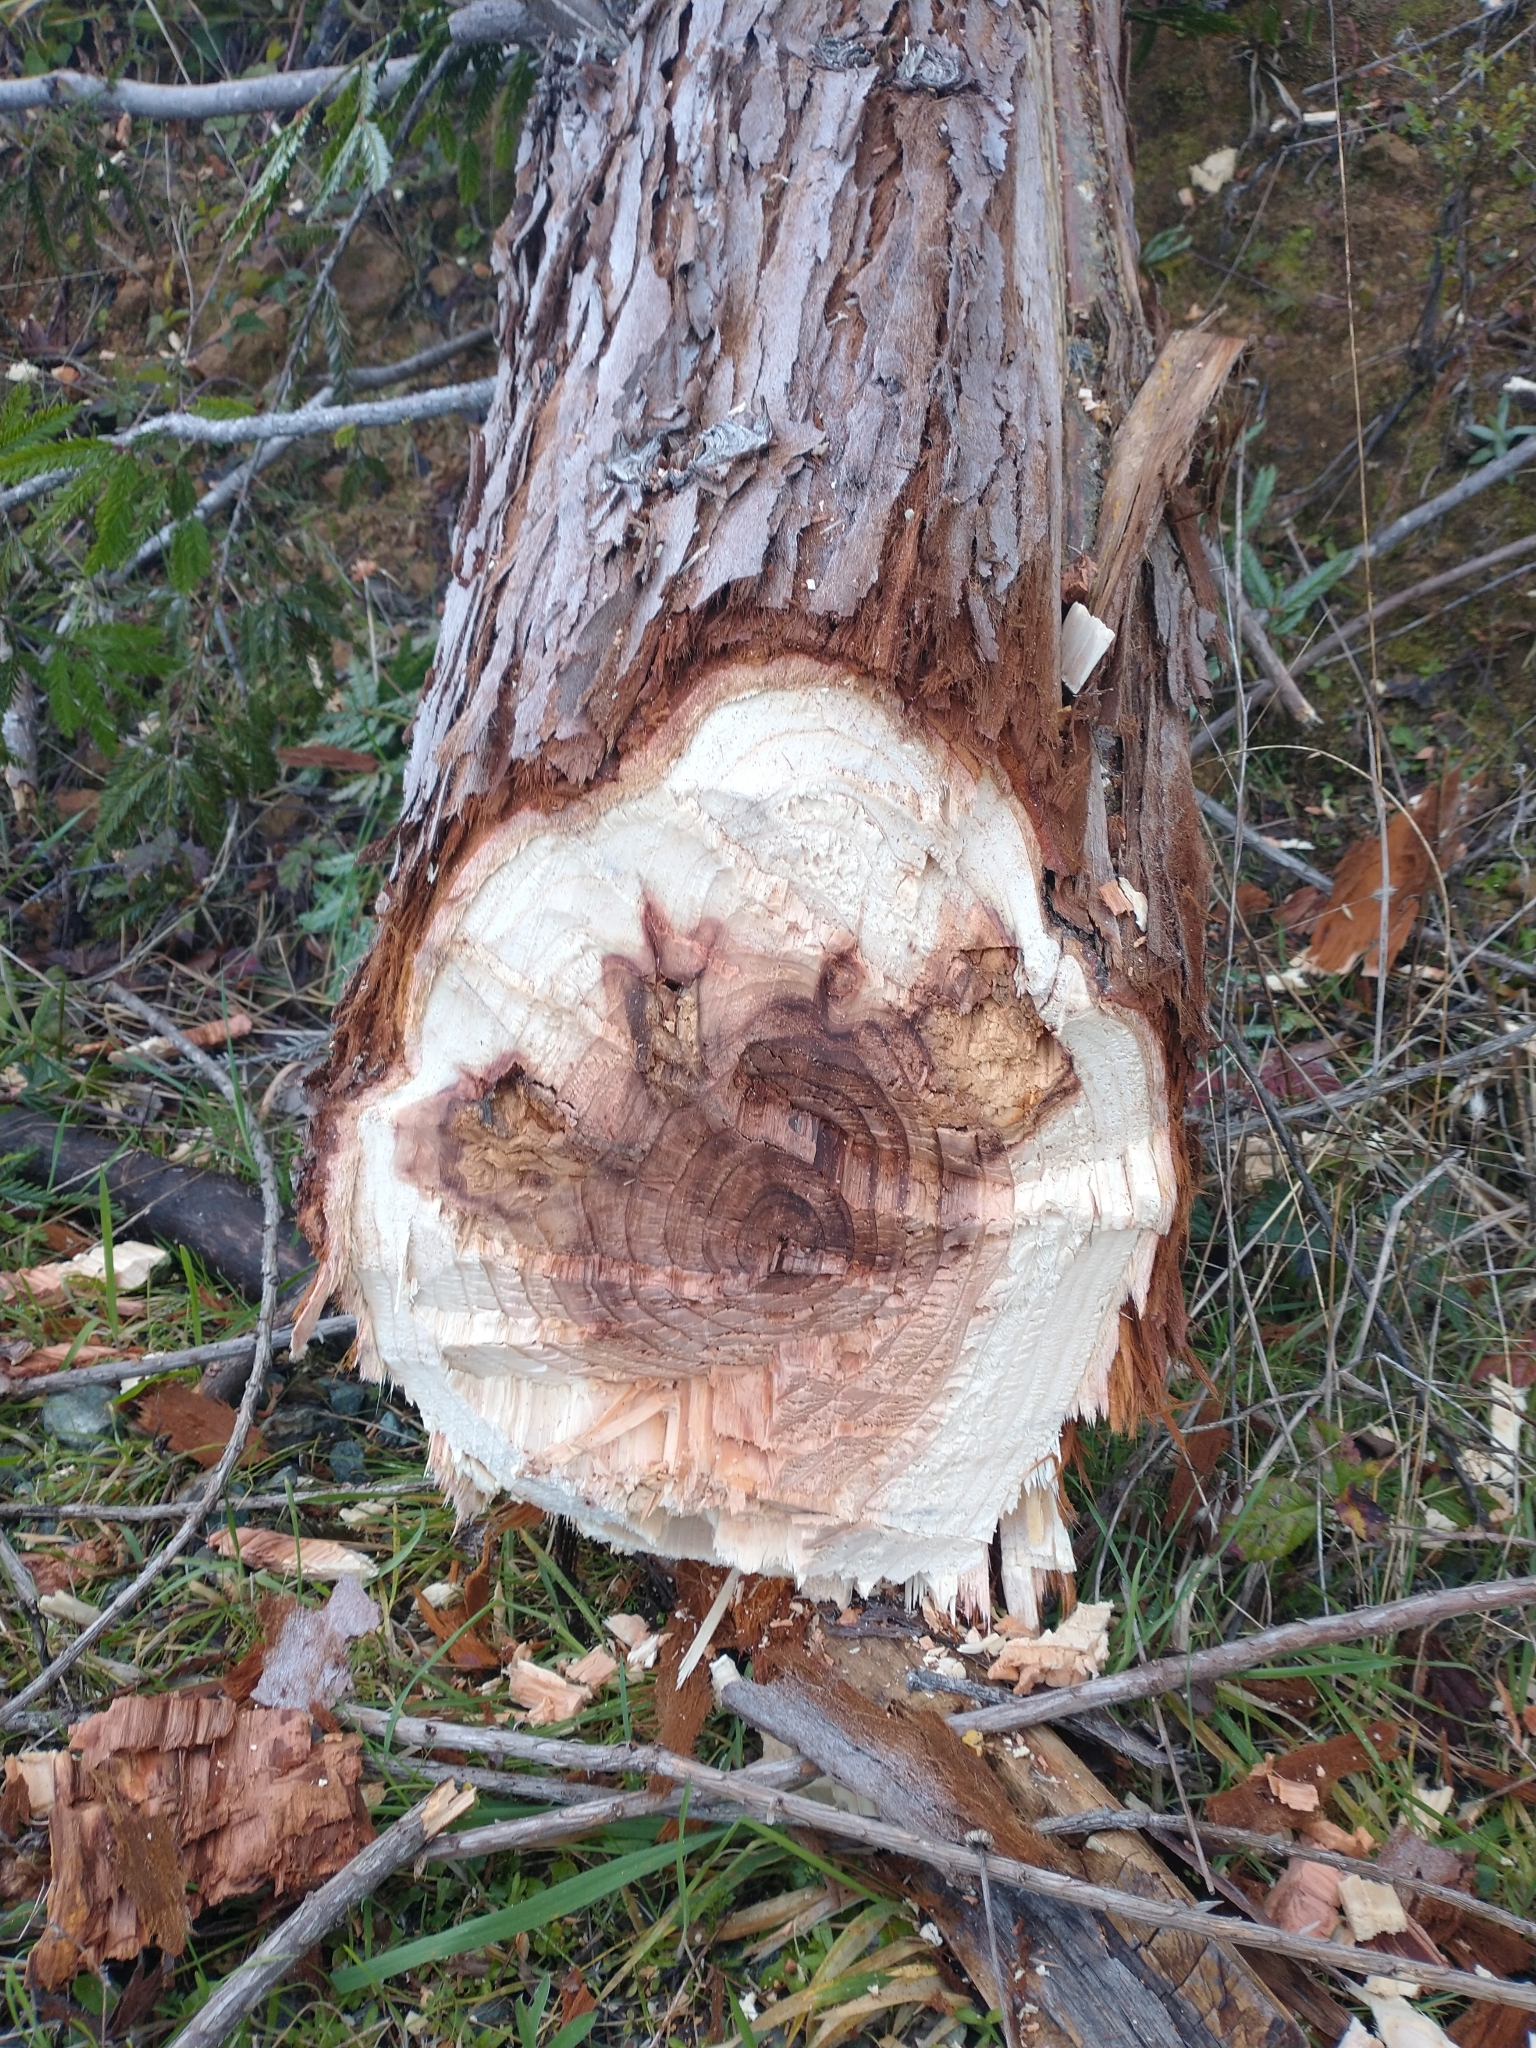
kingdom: Plantae
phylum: Tracheophyta
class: Pinopsida
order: Pinales
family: Cupressaceae
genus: Sequoia
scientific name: Sequoia sempervirens
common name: Coast redwood
